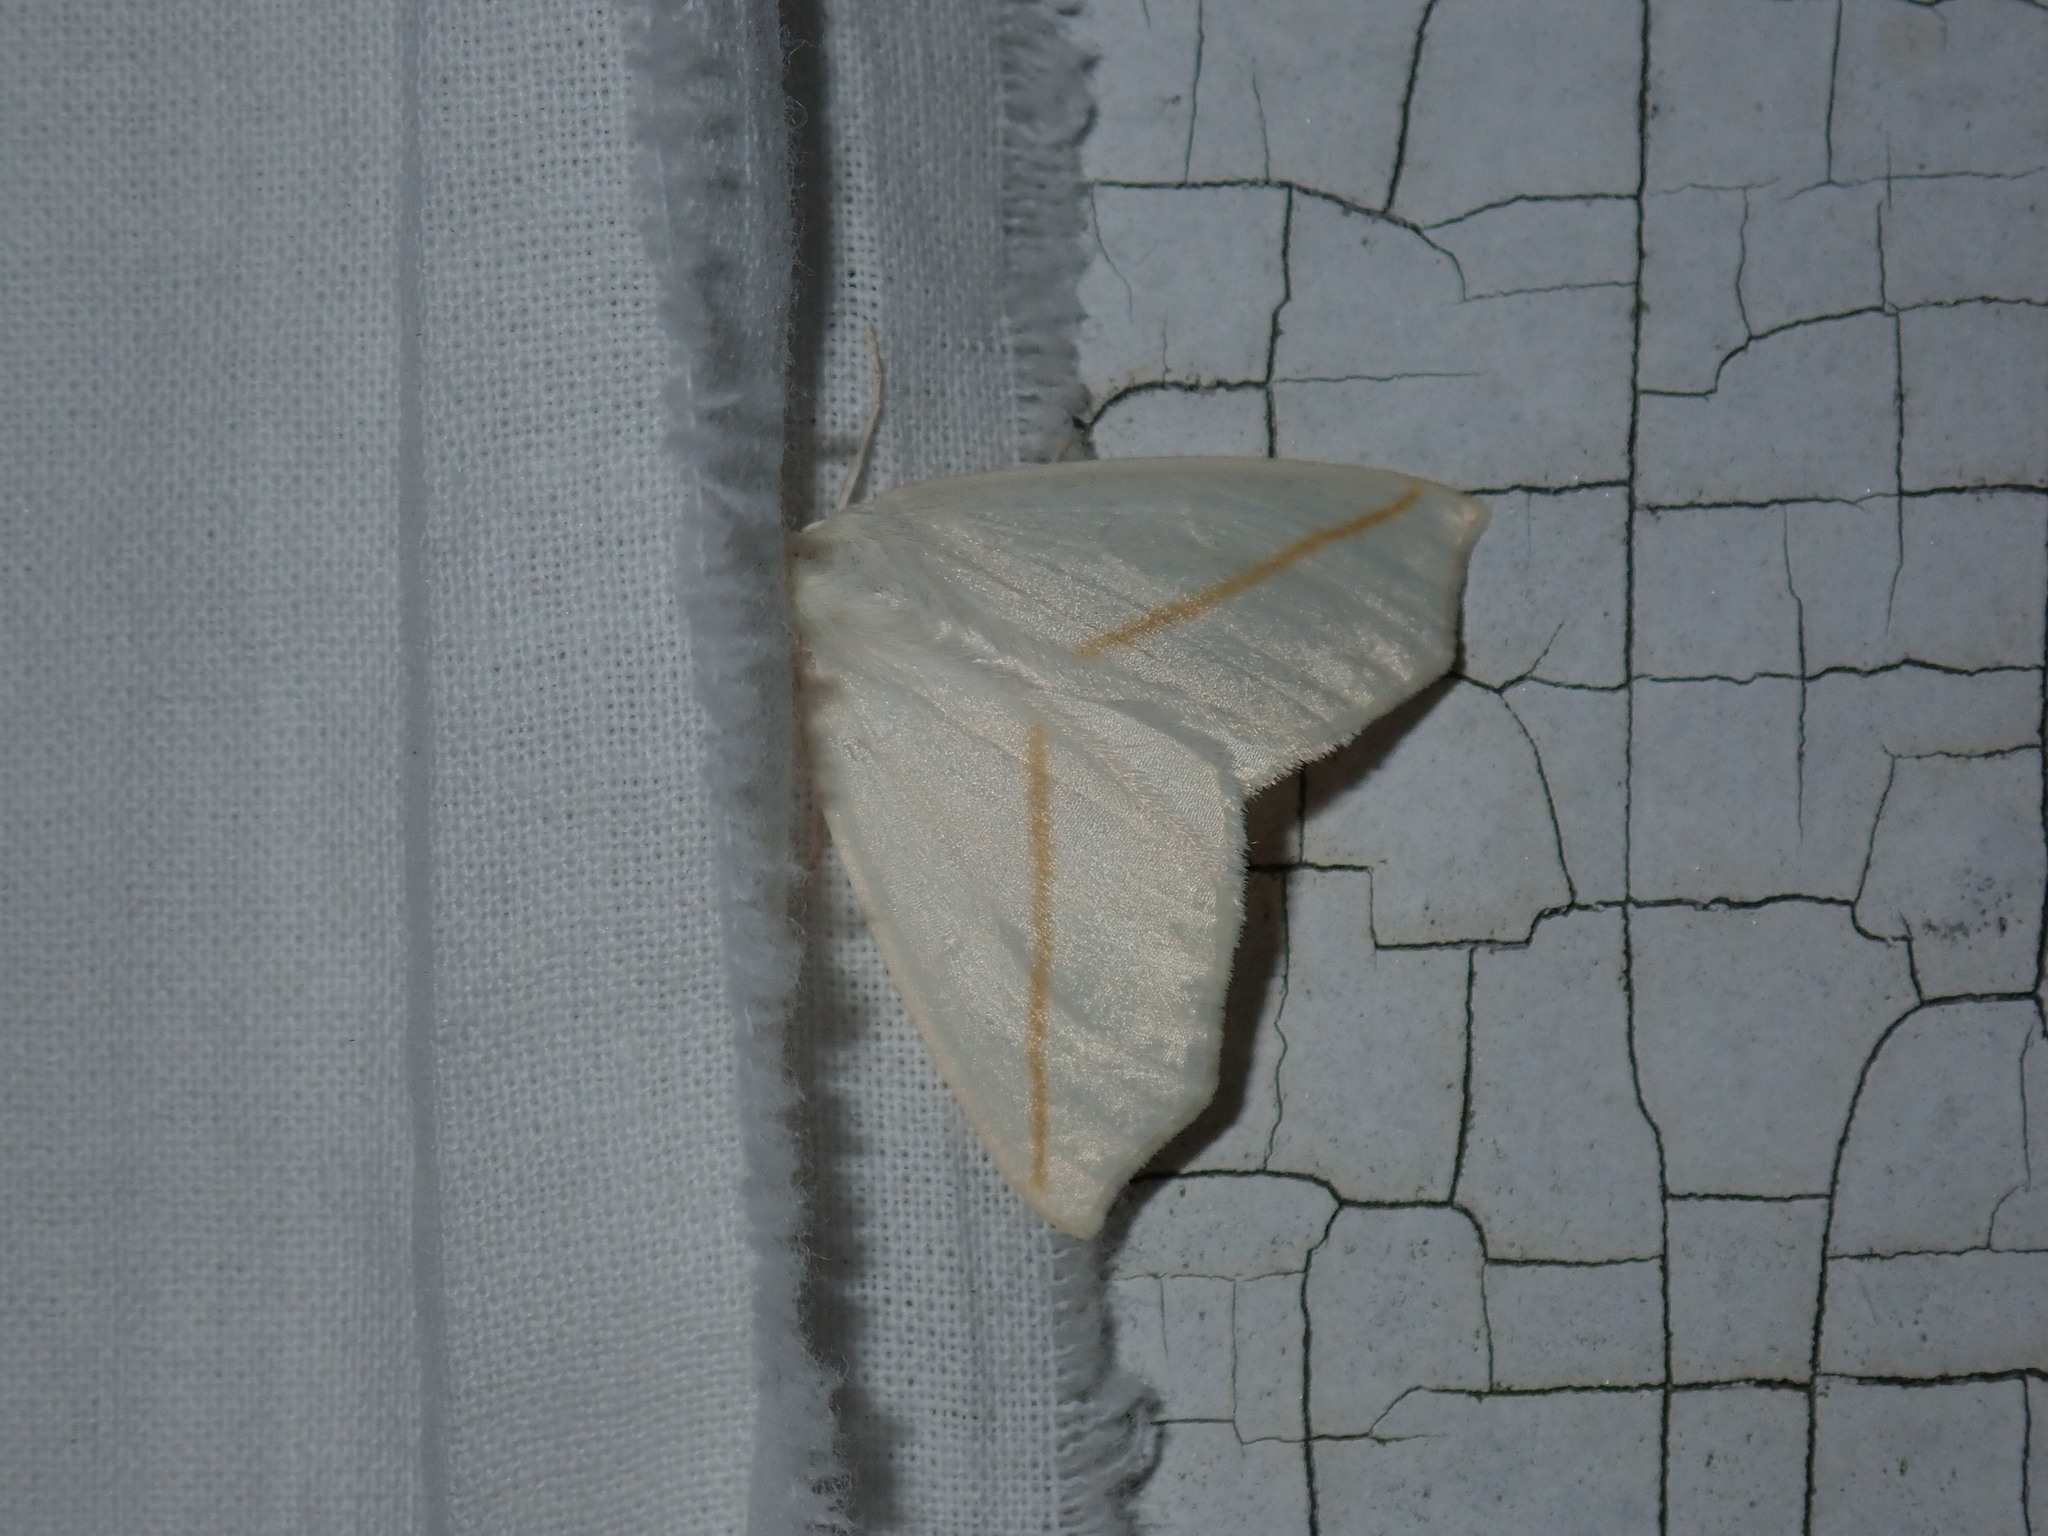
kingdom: Animalia
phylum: Arthropoda
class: Insecta
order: Lepidoptera
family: Geometridae
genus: Tetracis
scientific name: Tetracis cachexiata
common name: White slant-line
